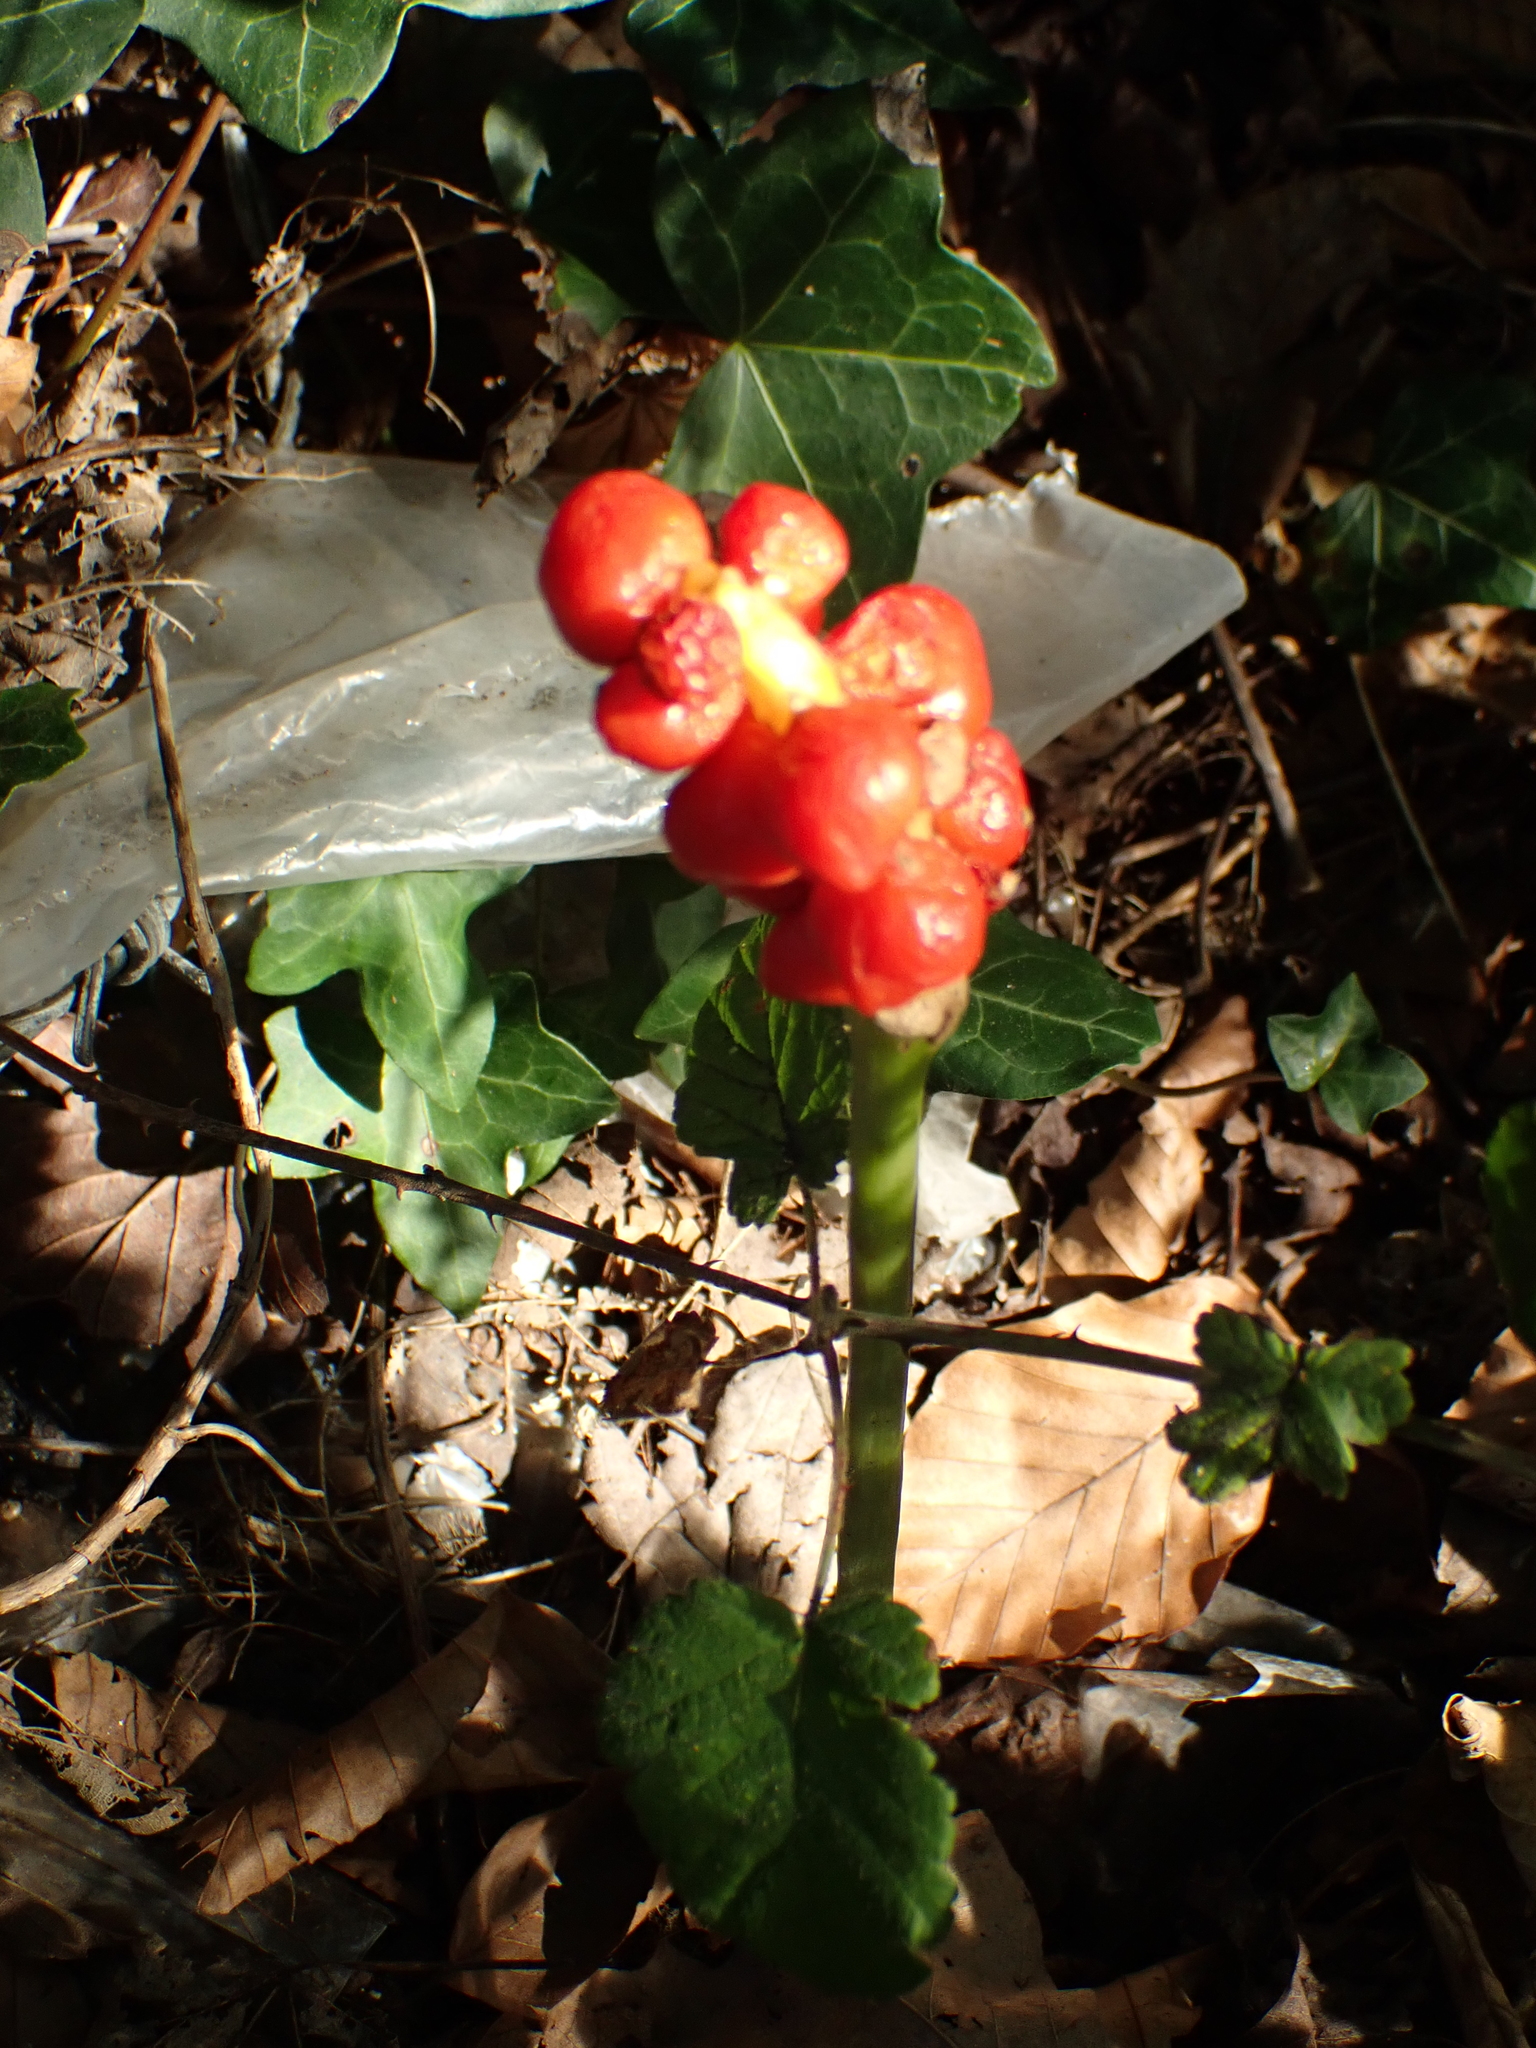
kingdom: Plantae
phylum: Tracheophyta
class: Liliopsida
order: Alismatales
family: Araceae
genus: Arum
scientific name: Arum maculatum
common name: Lords-and-ladies
